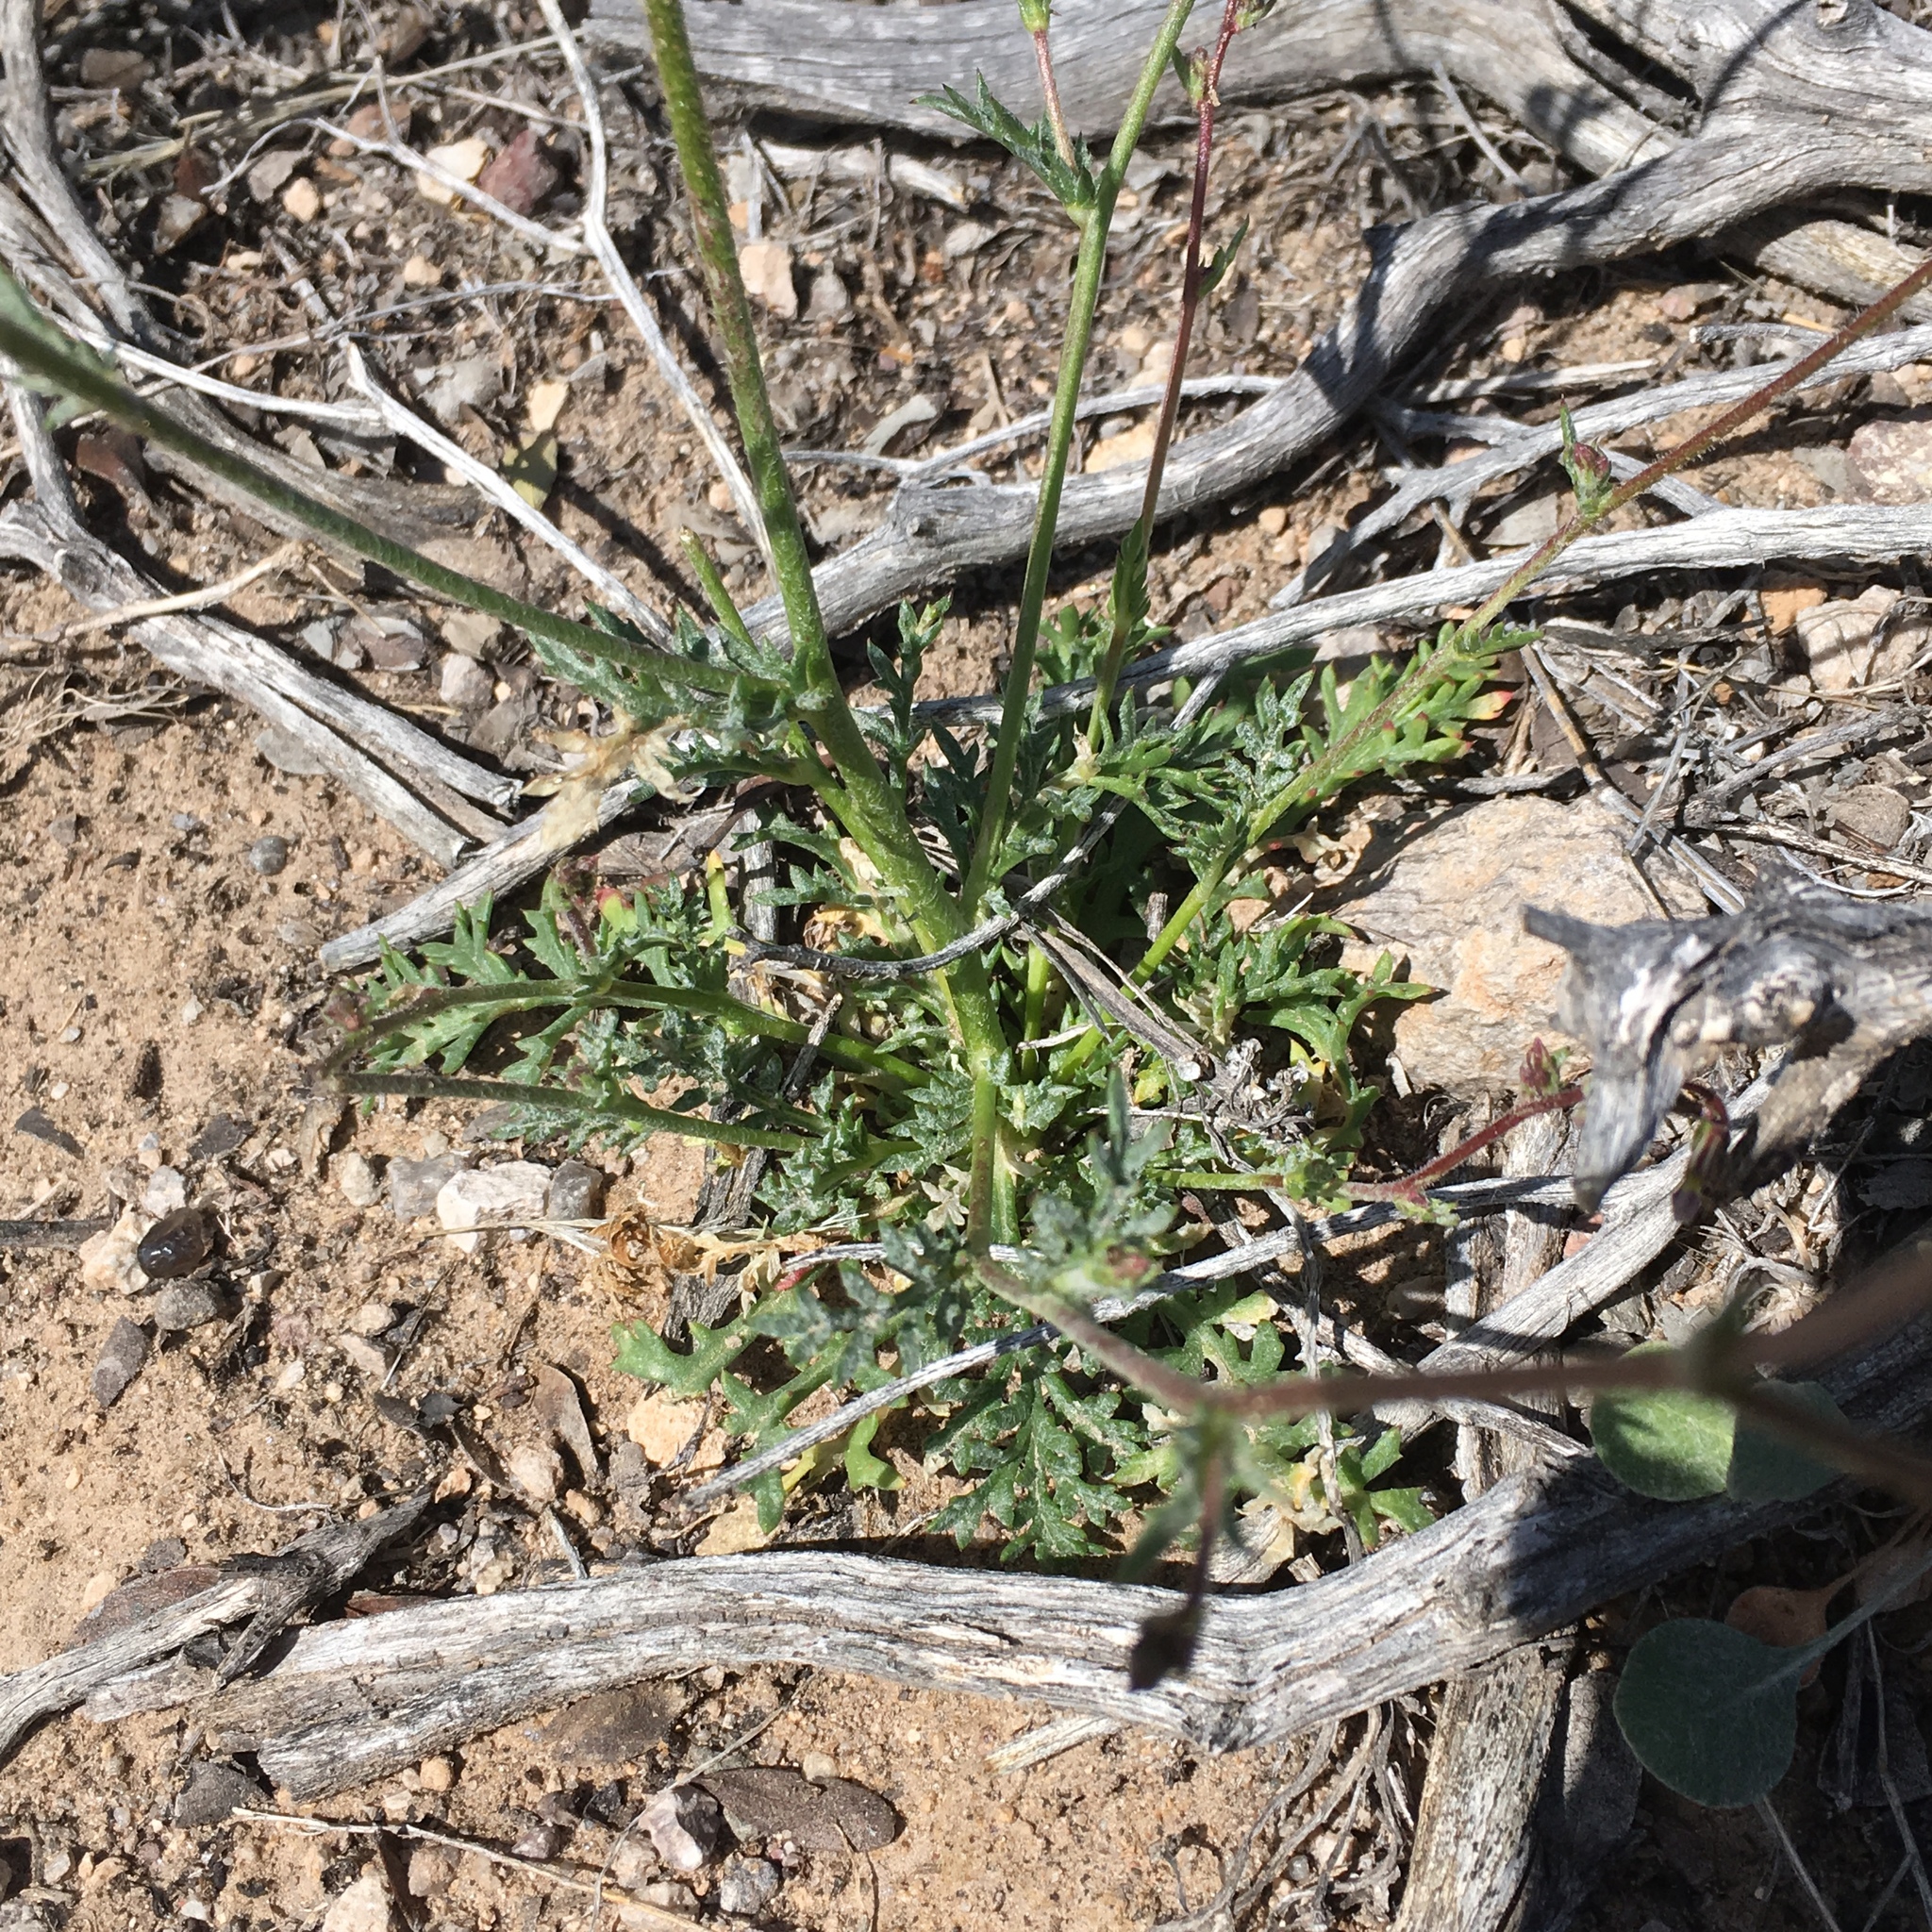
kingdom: Plantae
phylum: Tracheophyta
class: Magnoliopsida
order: Ericales
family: Polemoniaceae
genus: Gilia
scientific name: Gilia clokeyi
